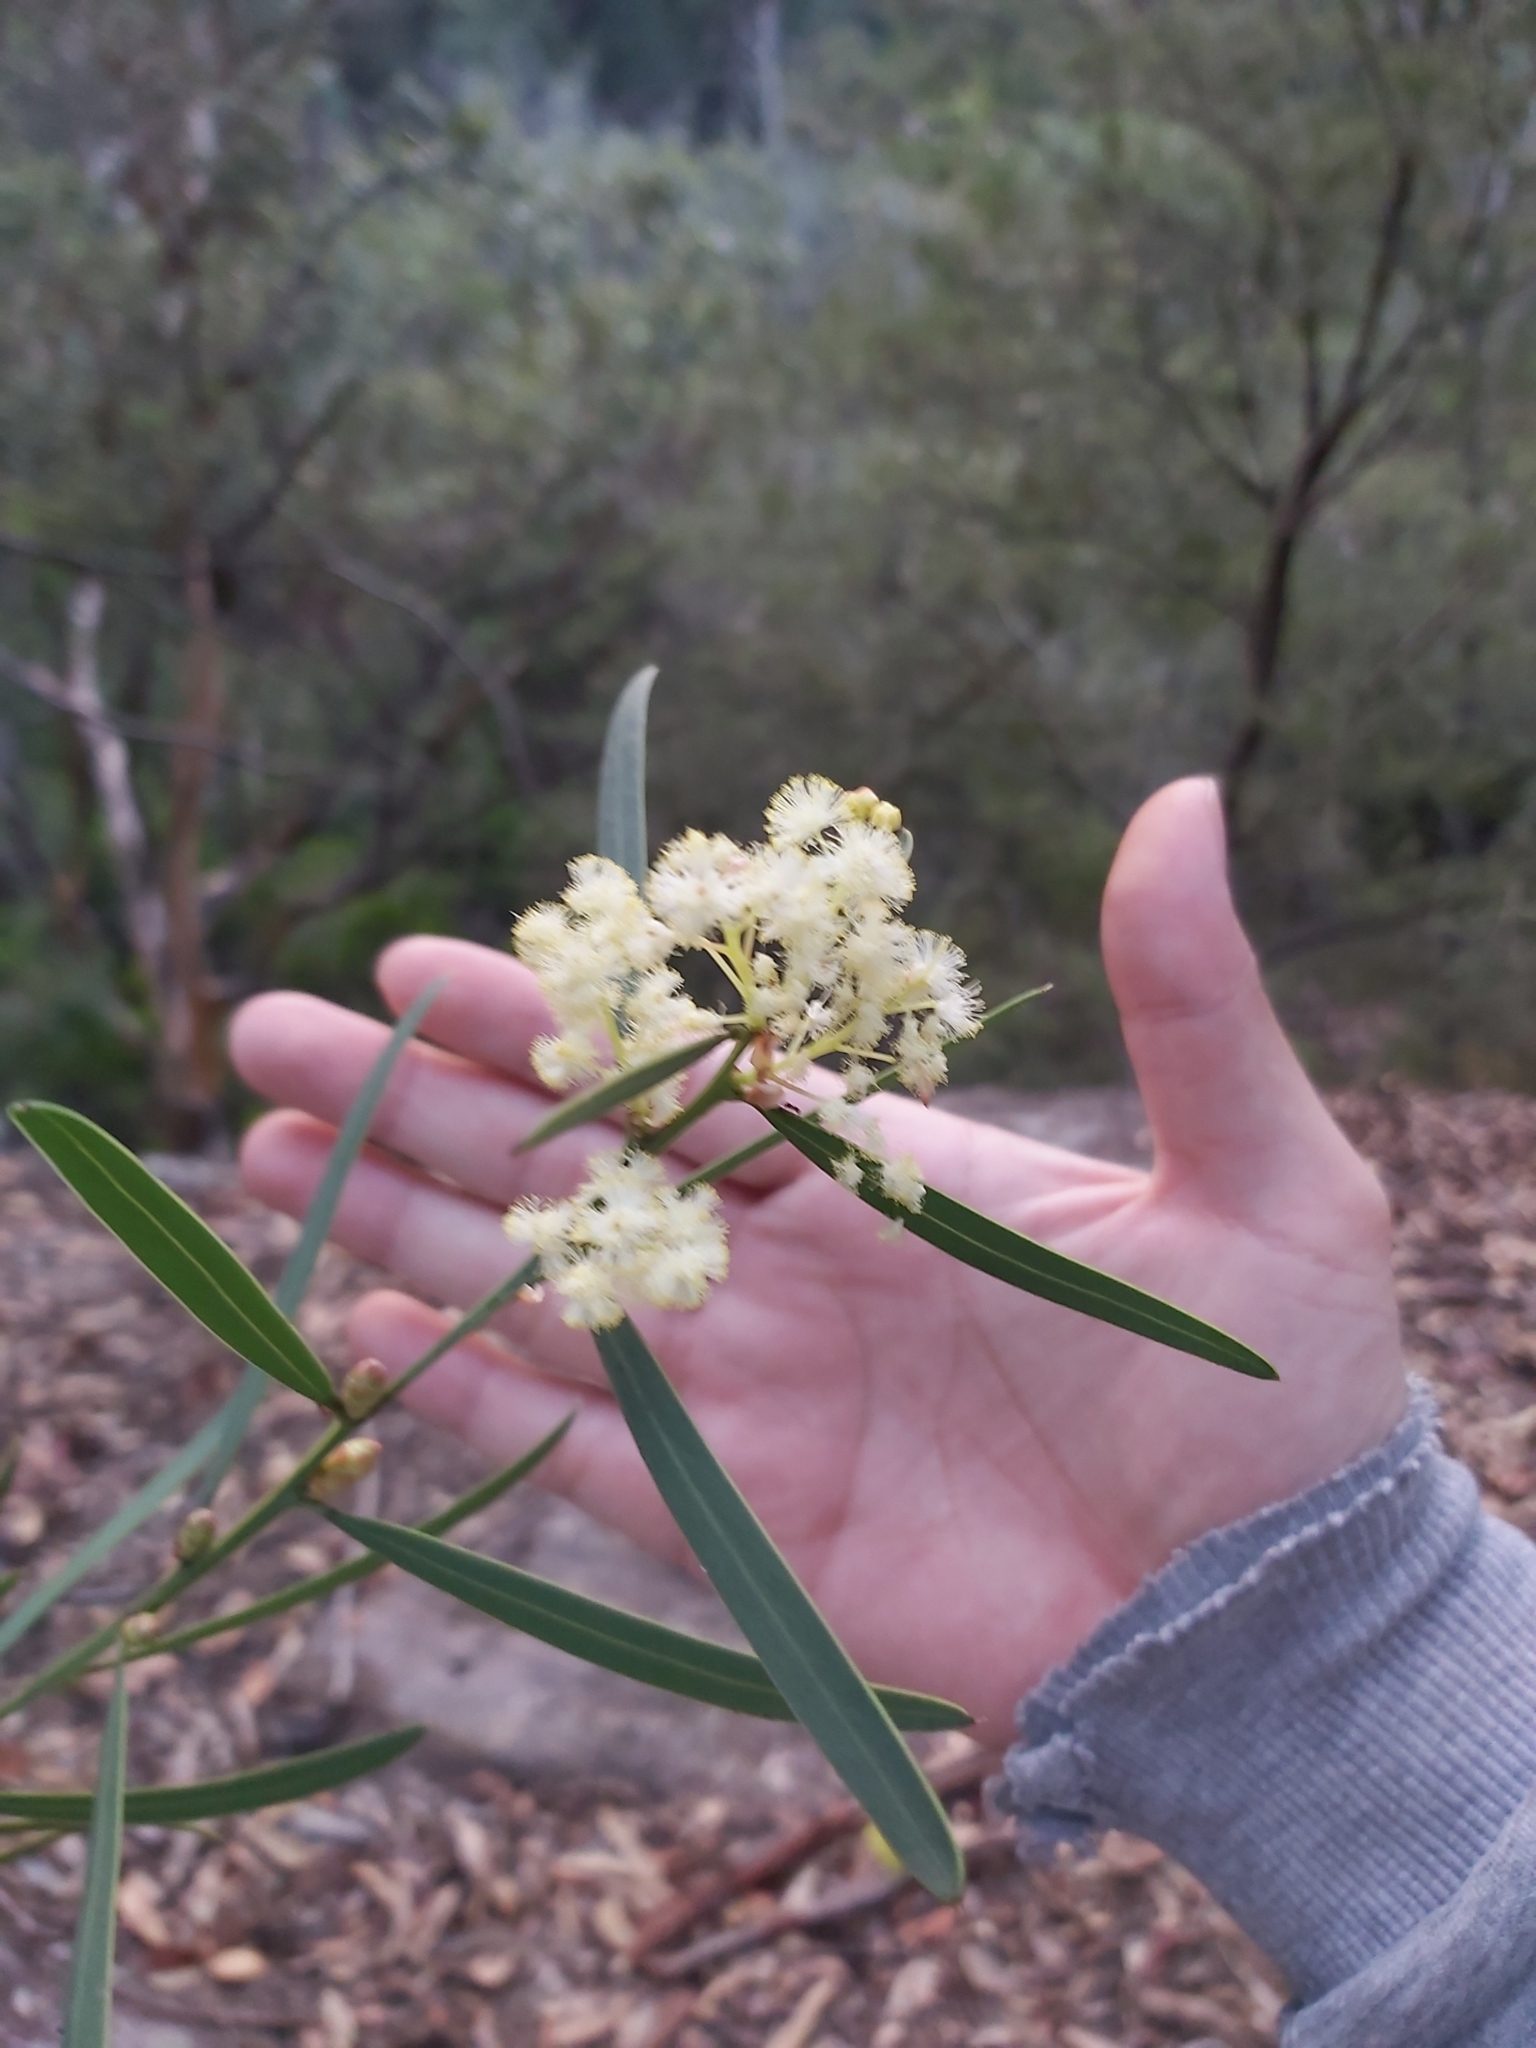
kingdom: Plantae
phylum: Tracheophyta
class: Magnoliopsida
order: Fabales
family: Fabaceae
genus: Acacia
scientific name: Acacia suaveolens
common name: Sweet acacia
